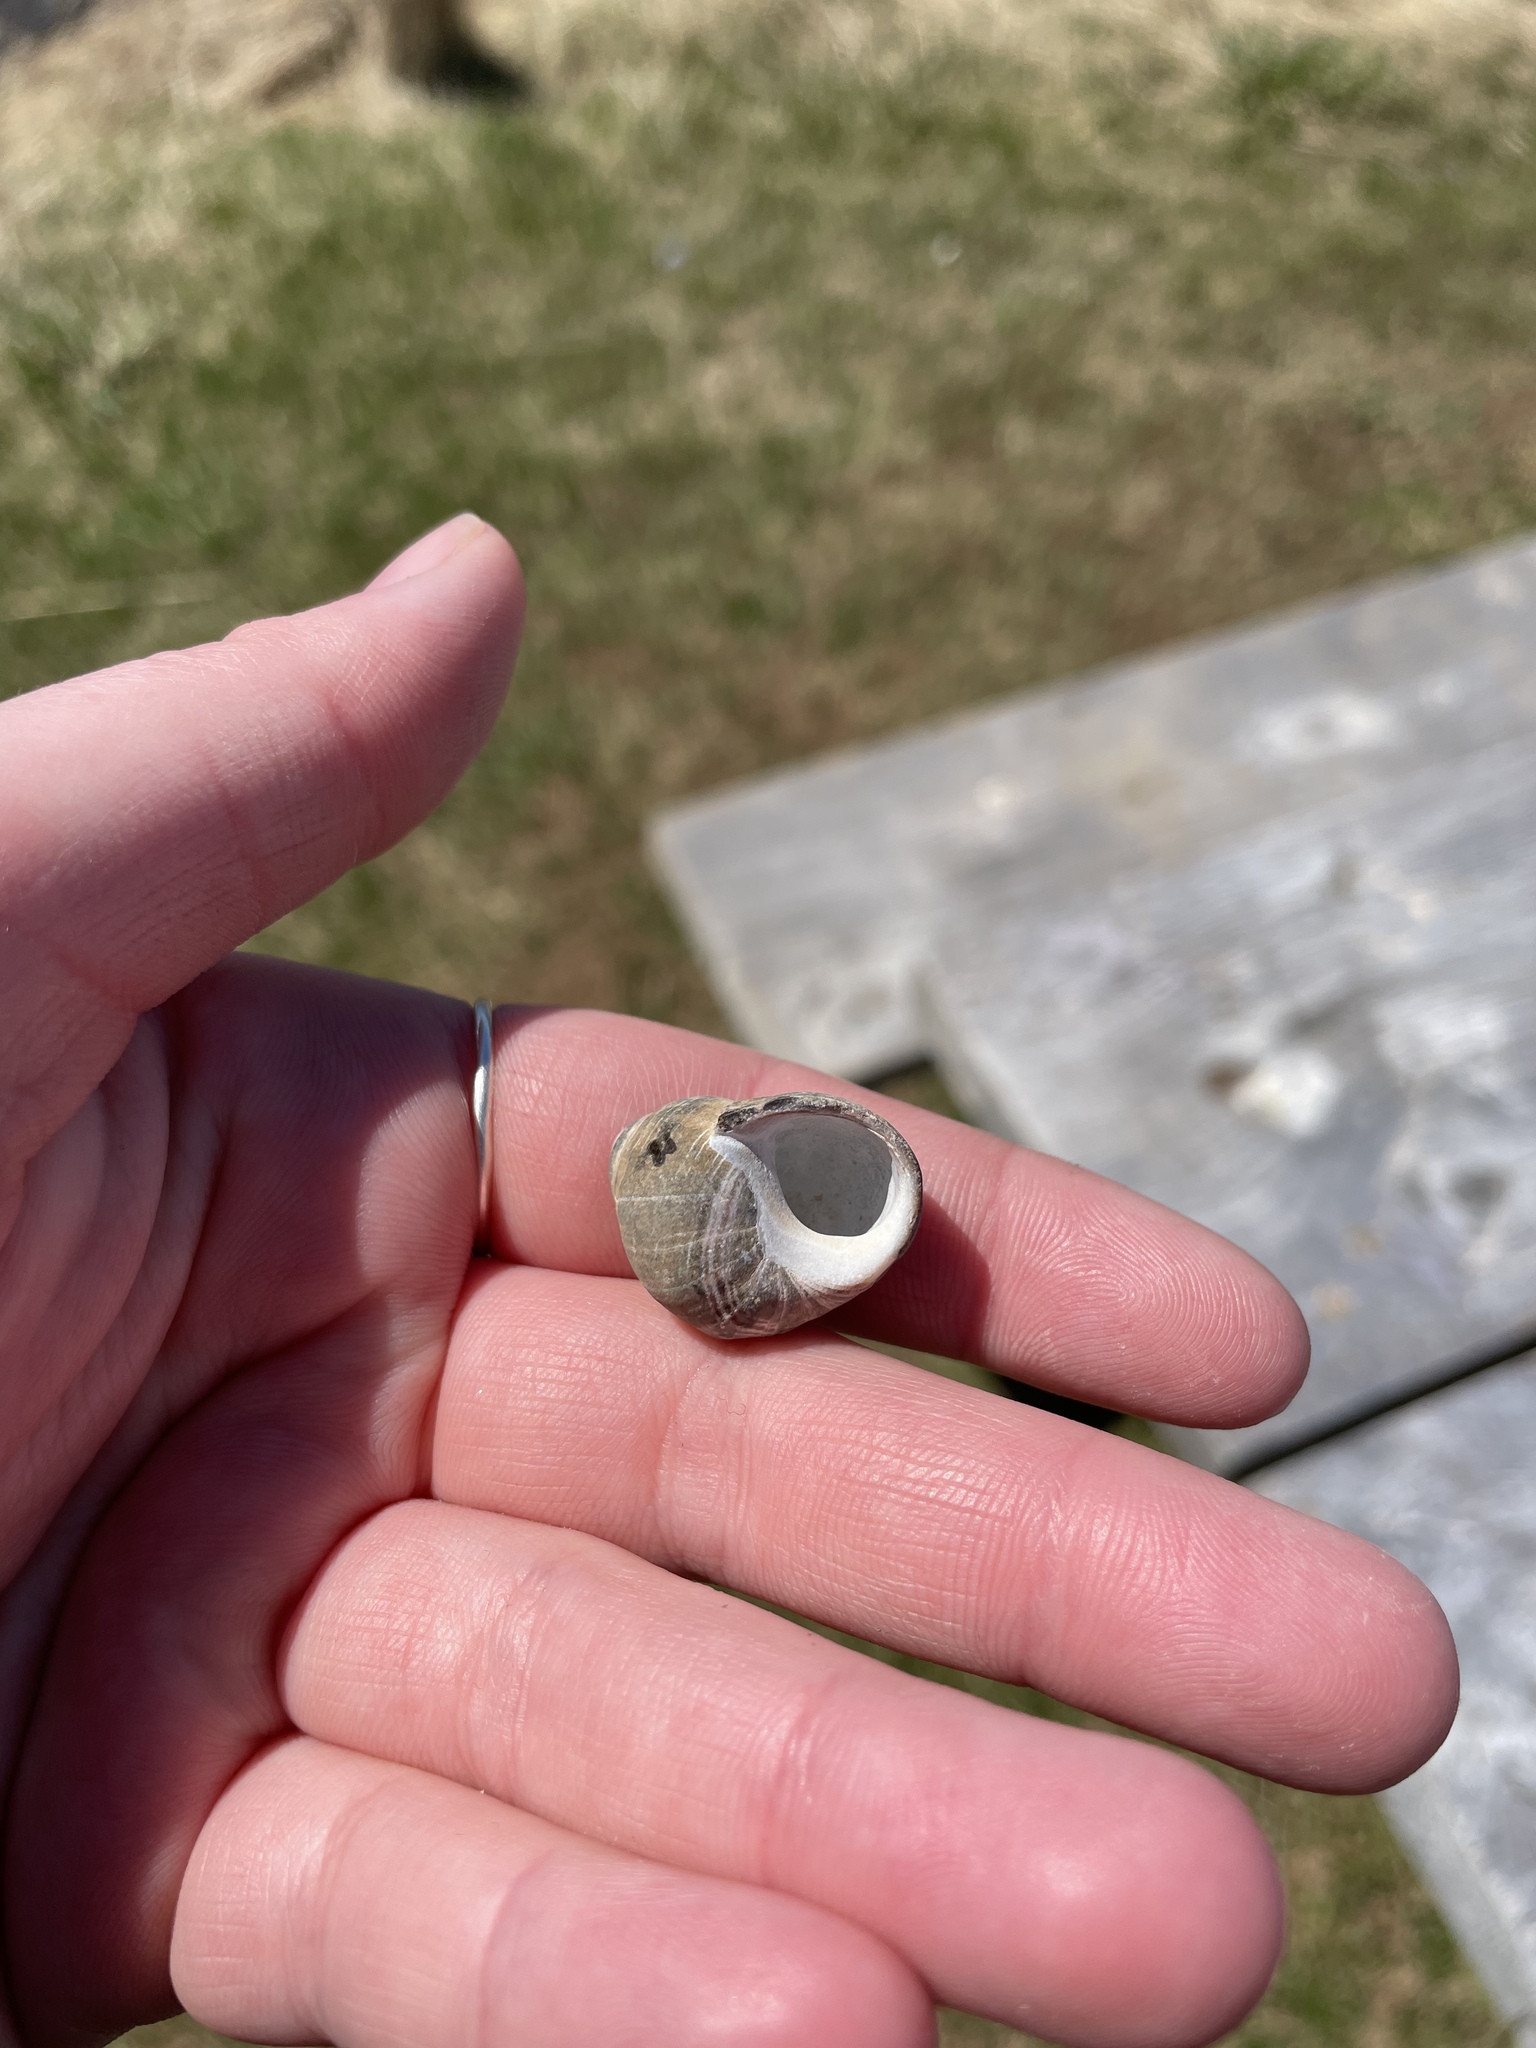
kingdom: Animalia
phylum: Mollusca
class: Gastropoda
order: Littorinimorpha
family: Littorinidae
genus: Littorina
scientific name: Littorina littorea
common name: Common periwinkle
